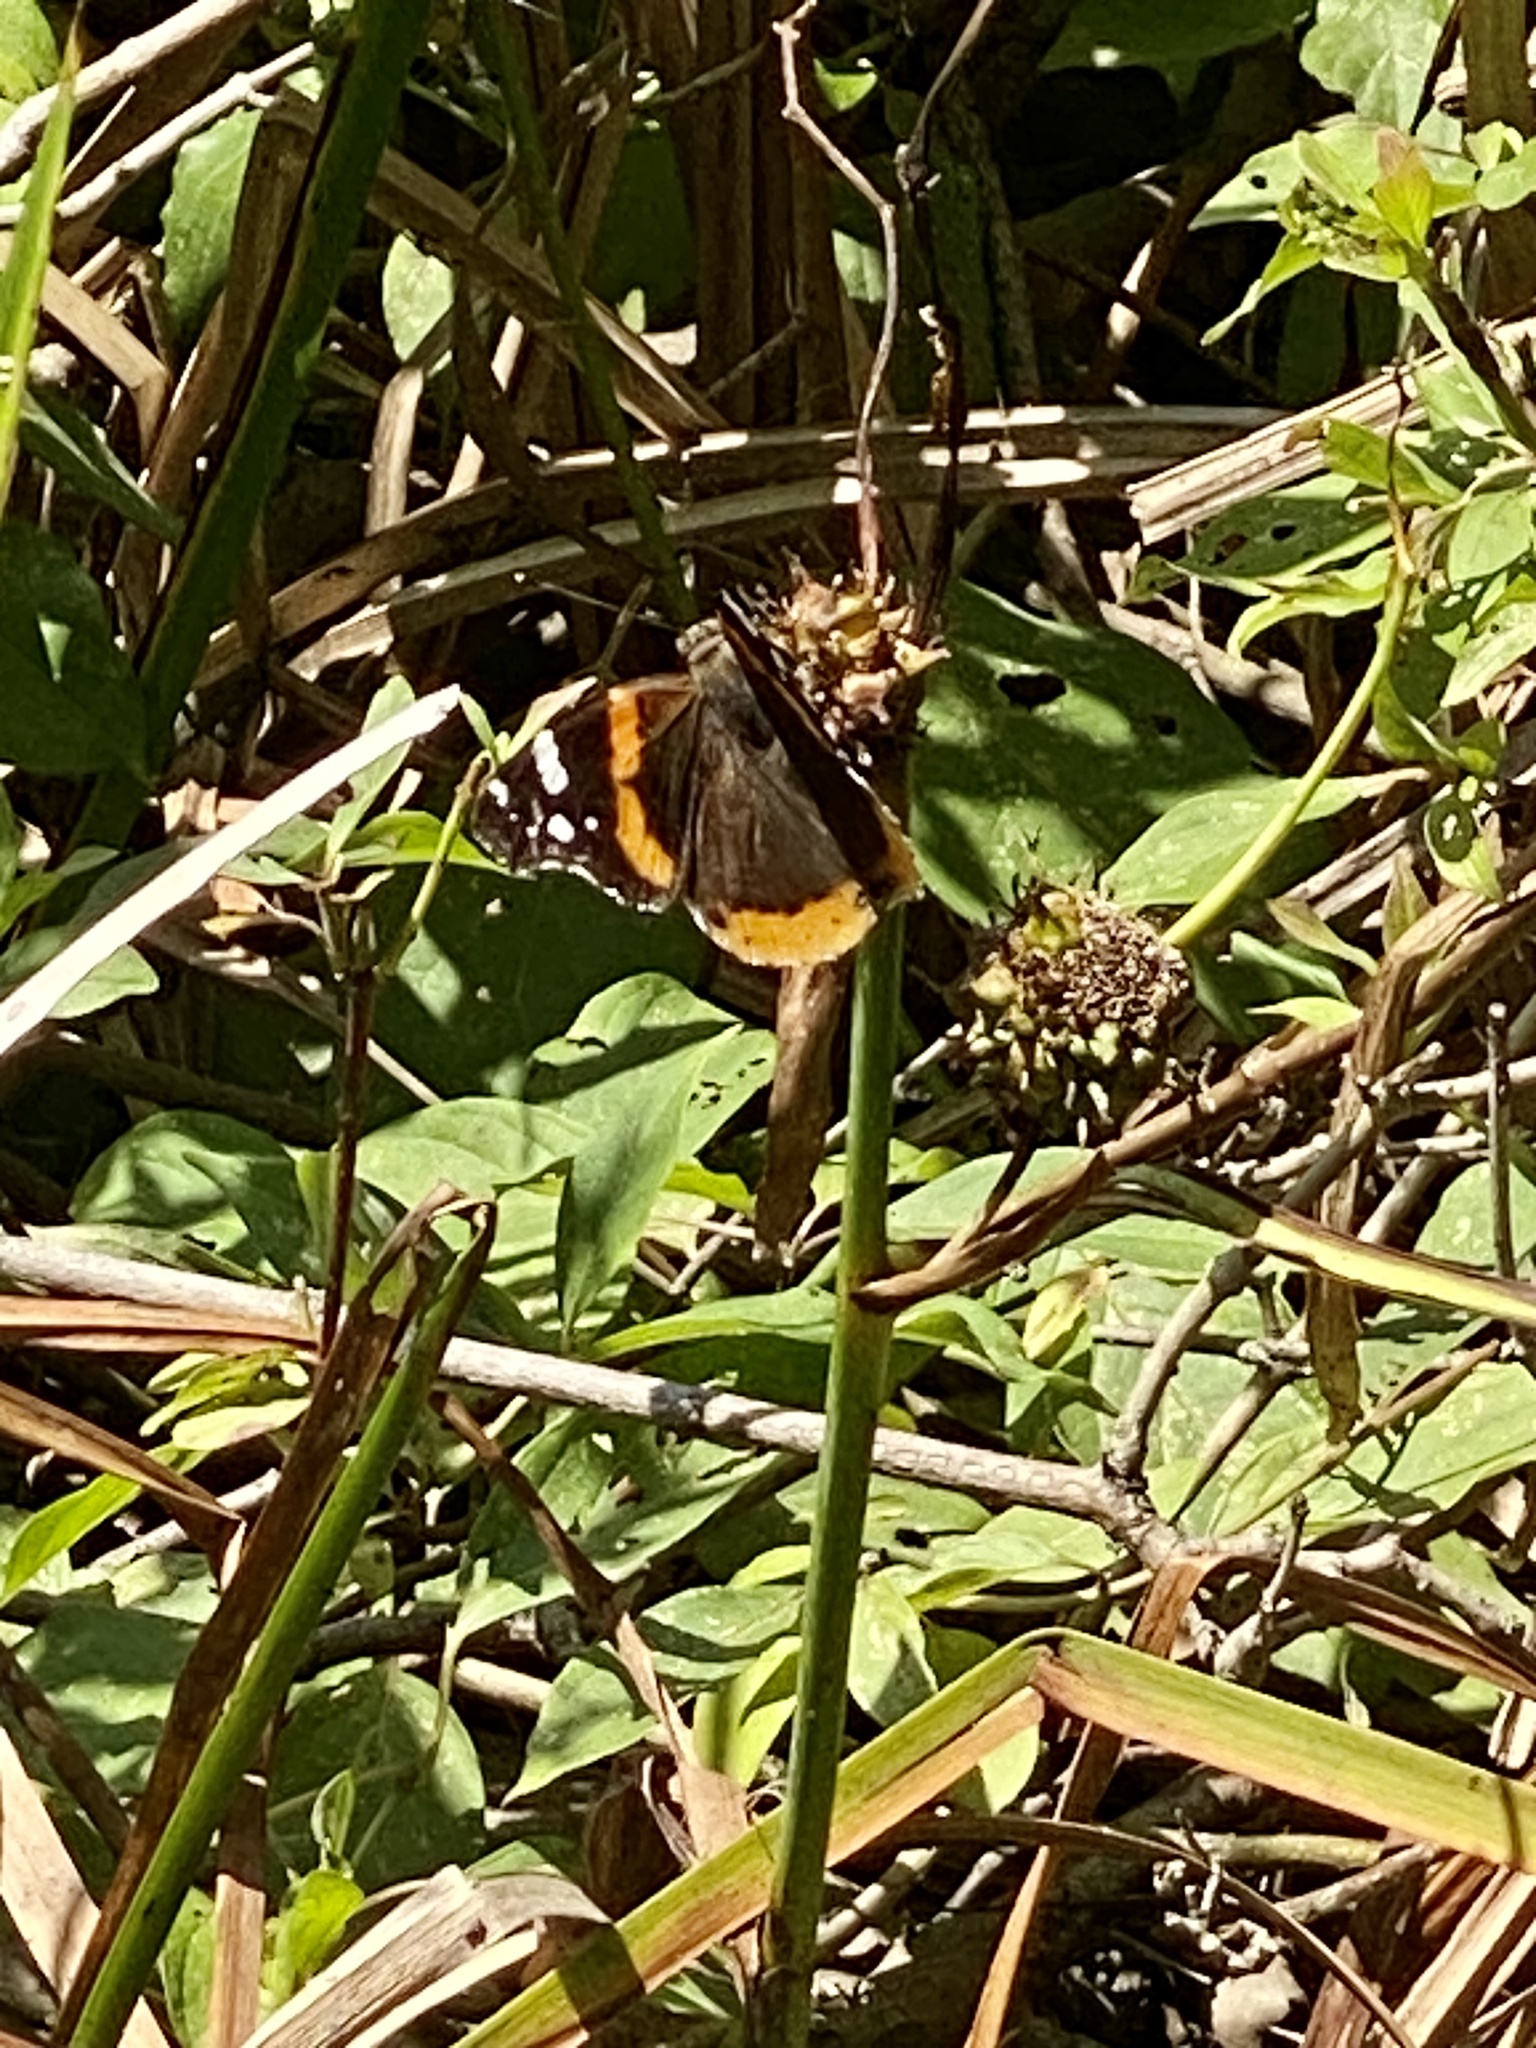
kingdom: Animalia
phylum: Arthropoda
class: Insecta
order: Lepidoptera
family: Nymphalidae
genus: Vanessa
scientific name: Vanessa atalanta
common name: Red admiral
